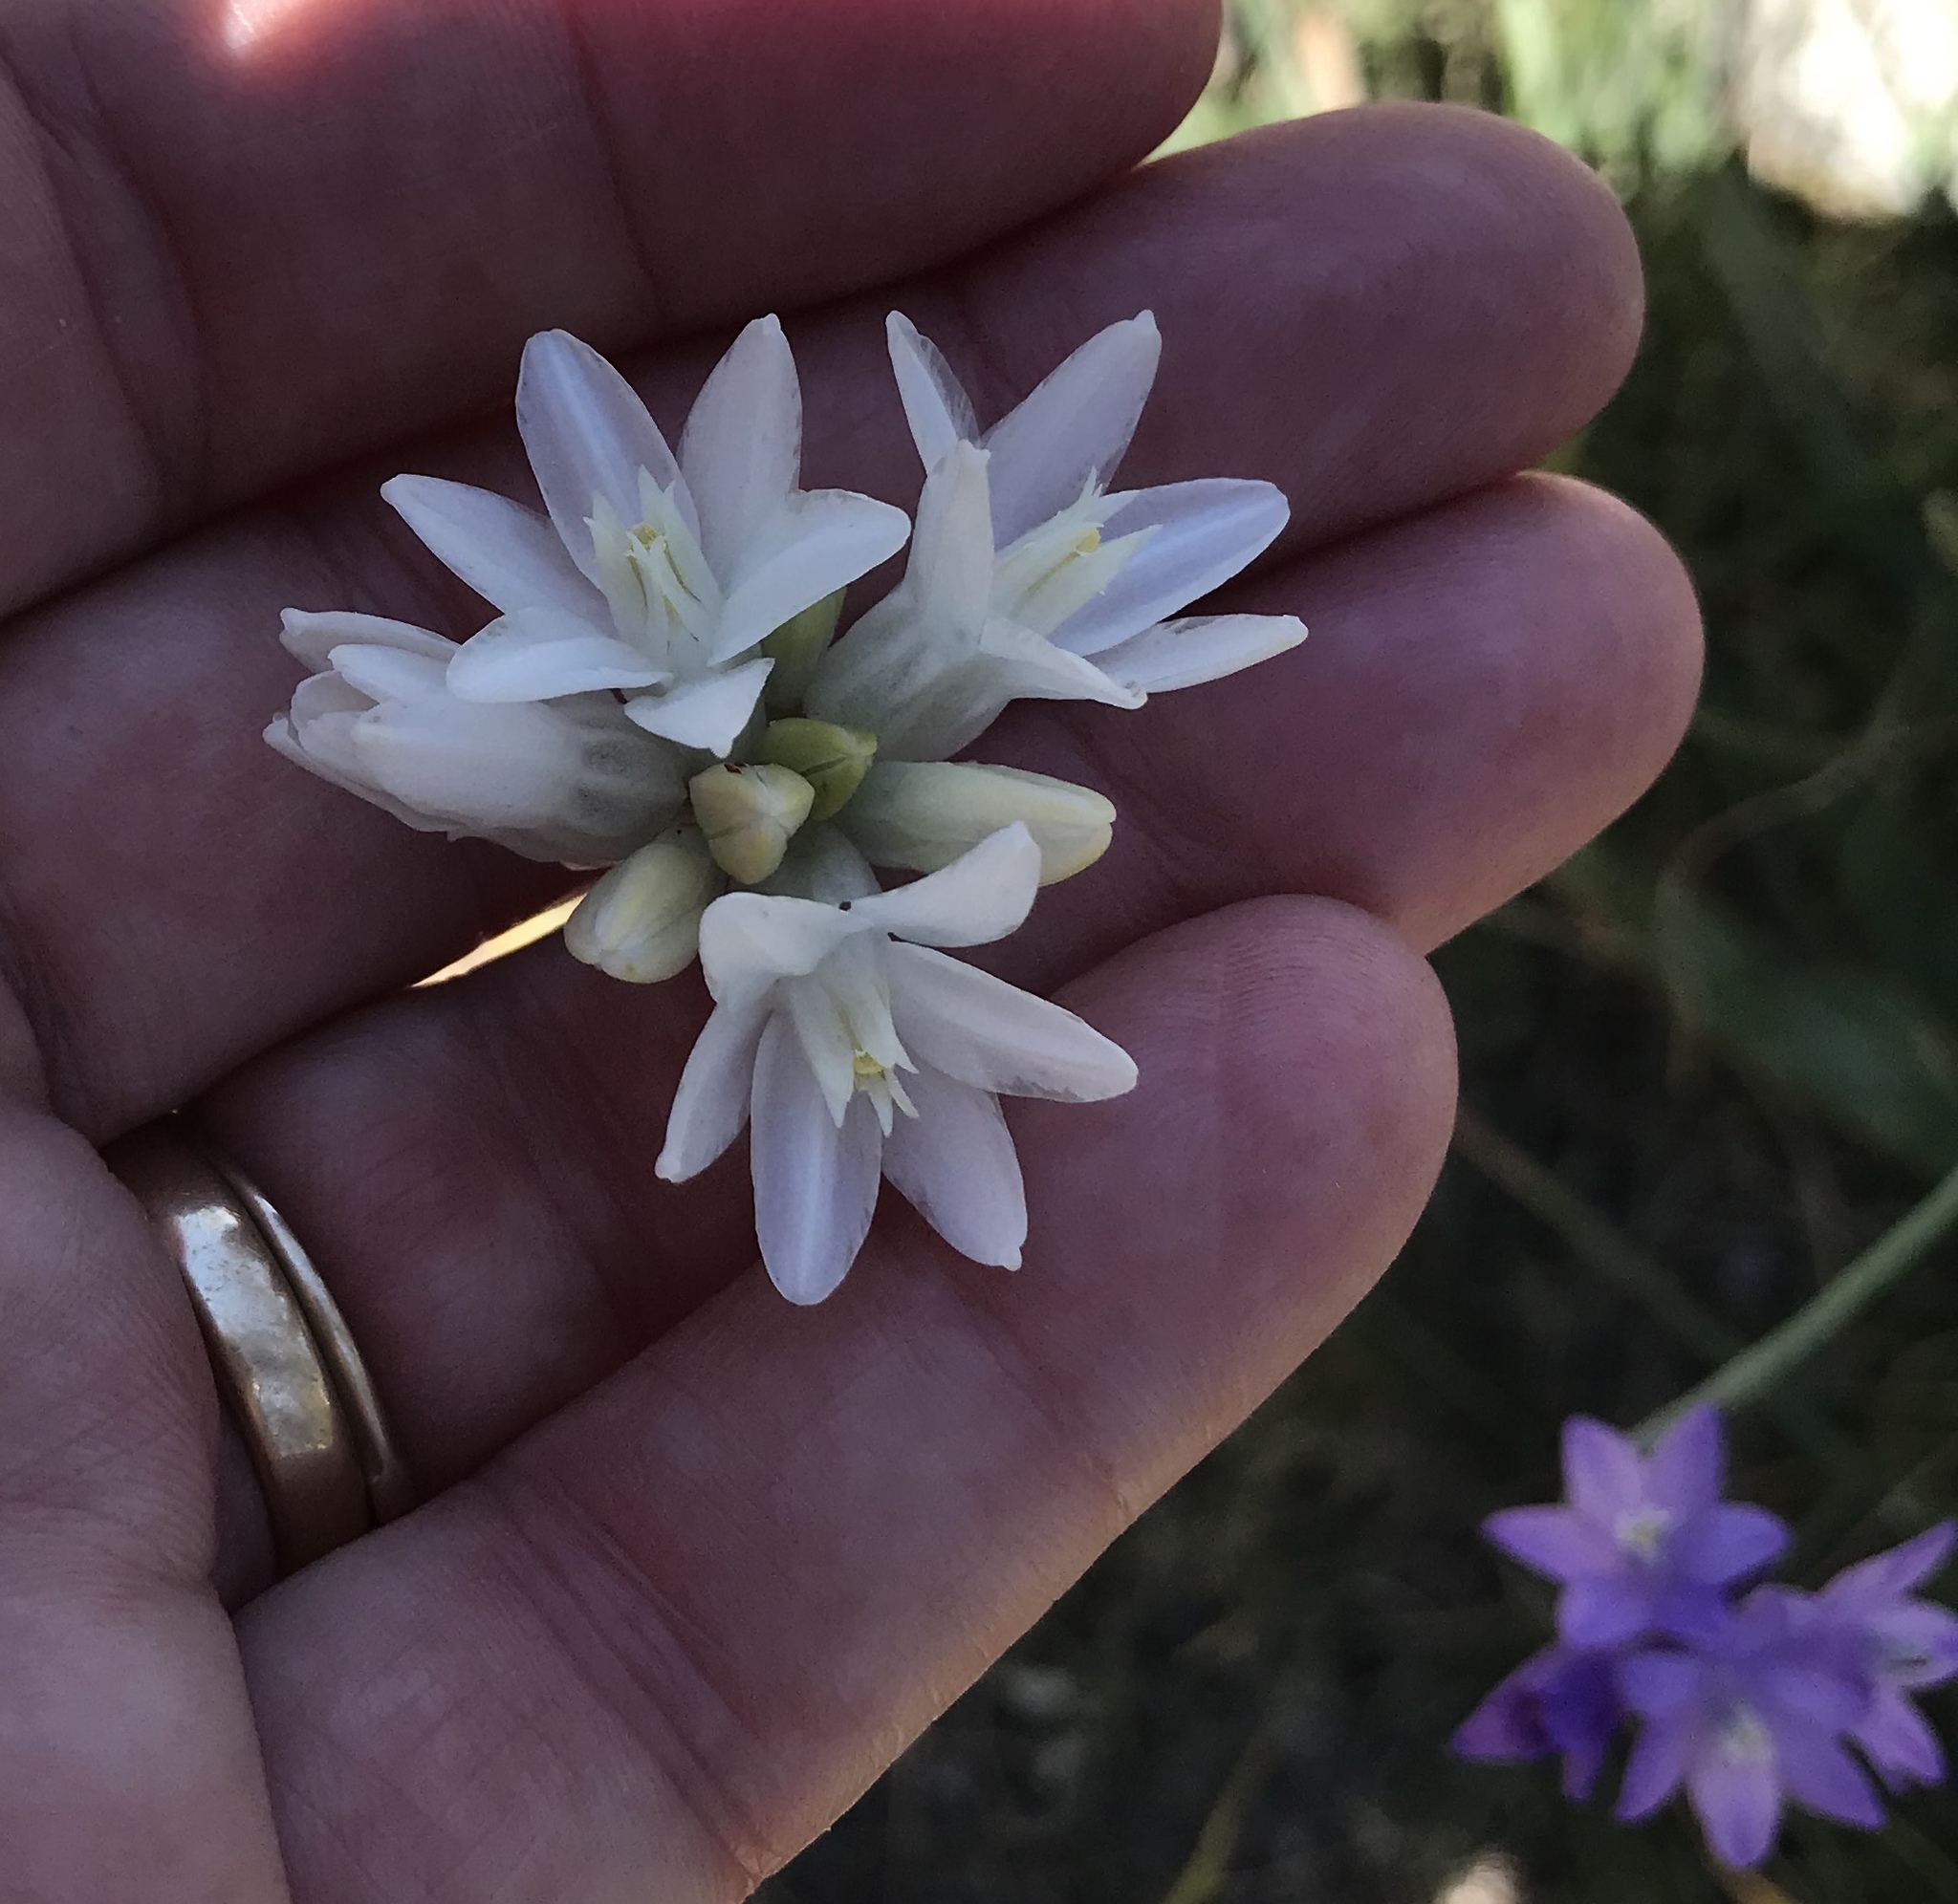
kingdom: Plantae
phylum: Tracheophyta
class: Liliopsida
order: Asparagales
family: Asparagaceae
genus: Dipterostemon
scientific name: Dipterostemon capitatus
